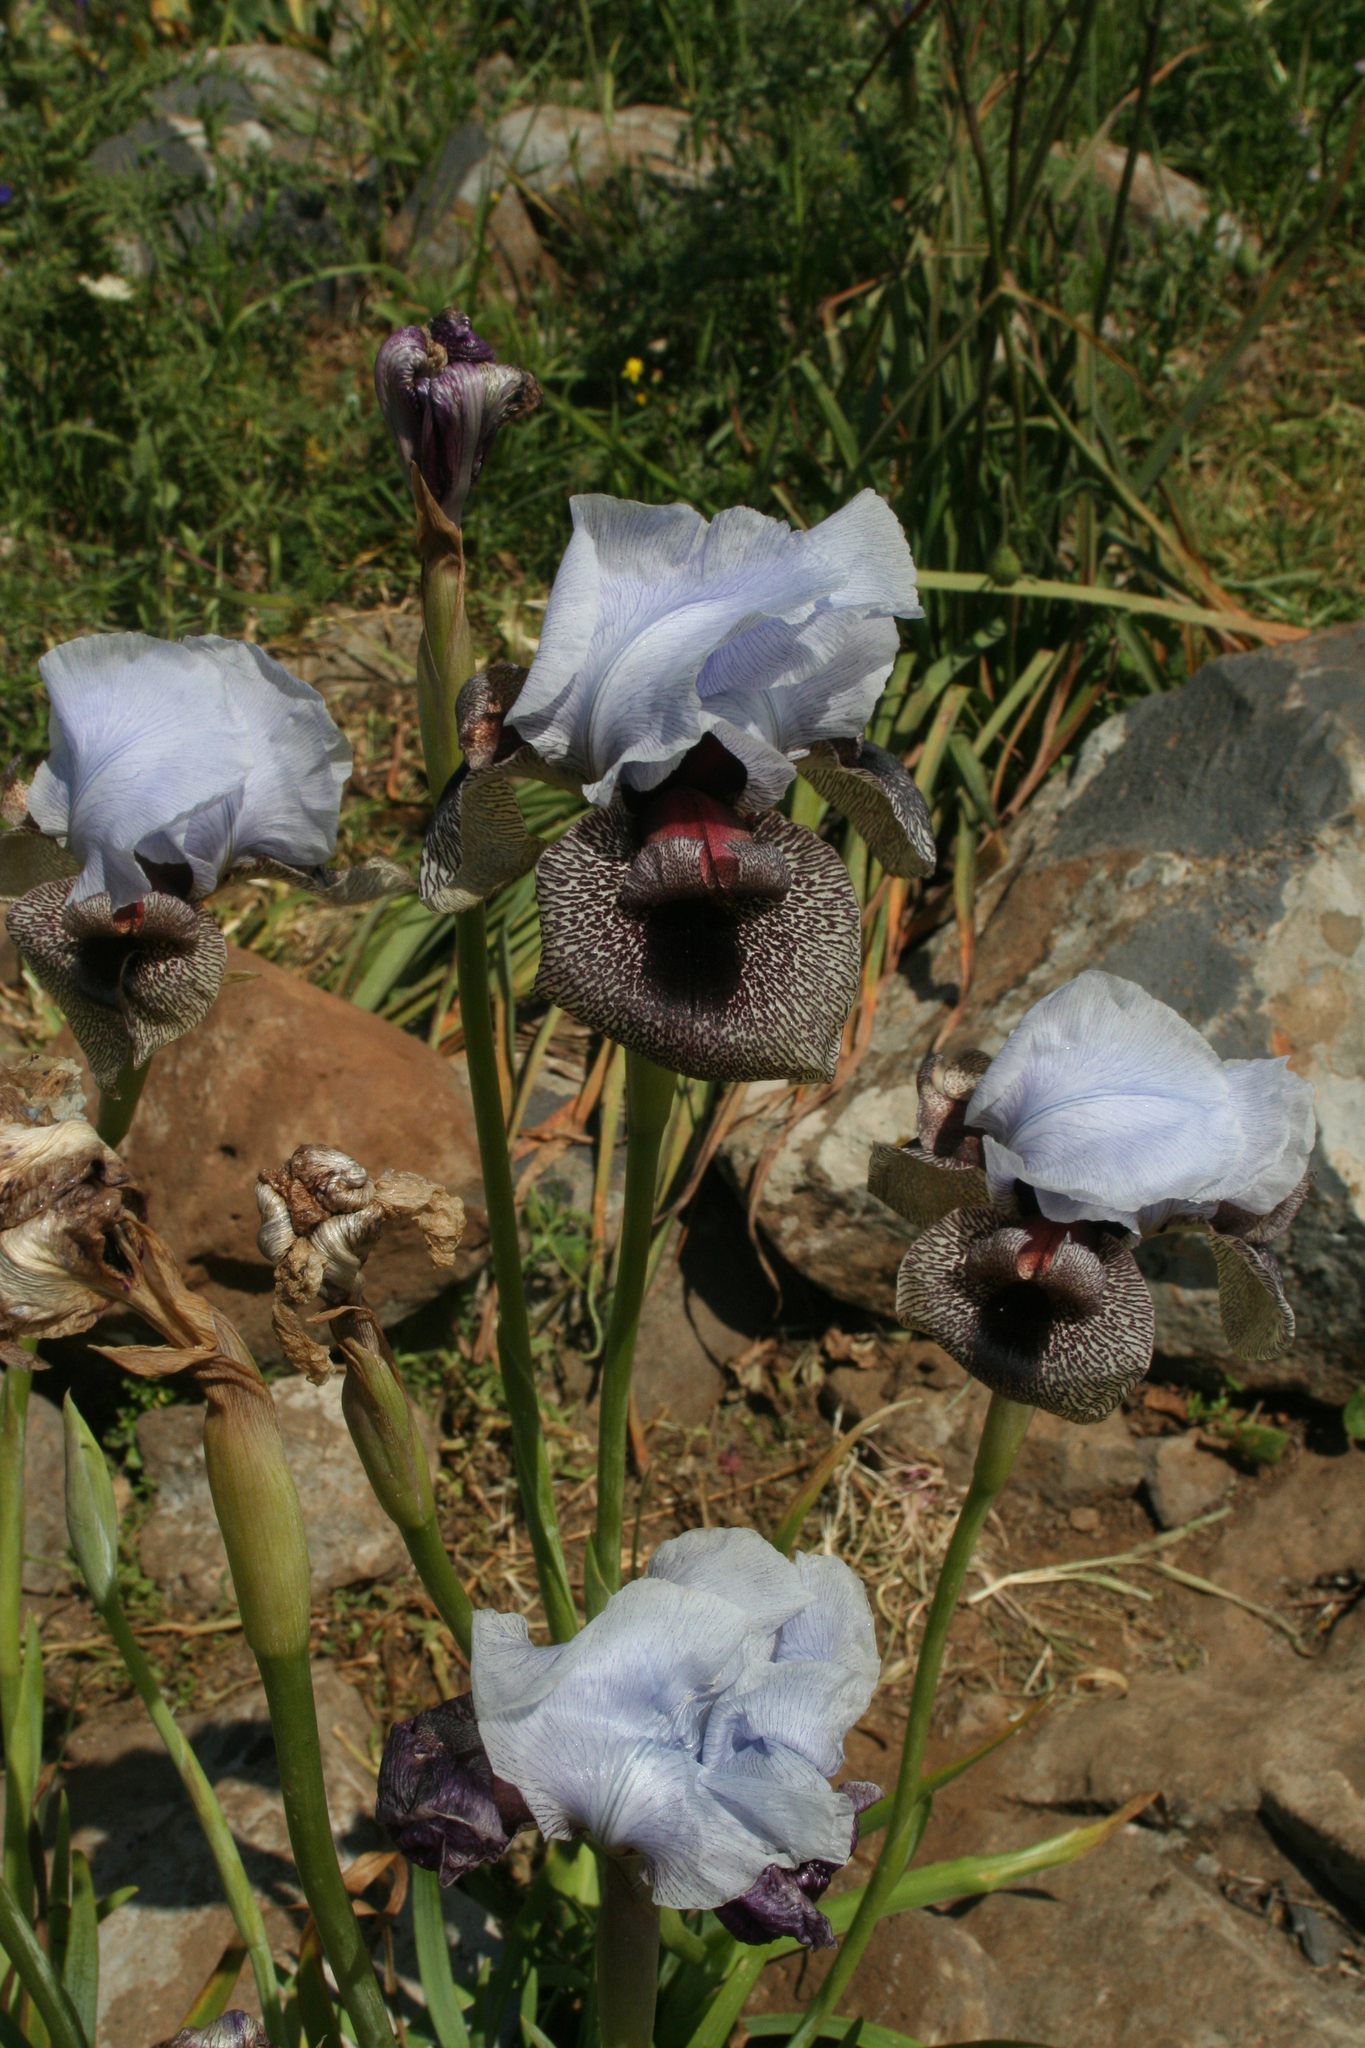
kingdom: Plantae
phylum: Tracheophyta
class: Liliopsida
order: Asparagales
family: Iridaceae
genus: Iris
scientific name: Iris hermona
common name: Golan iris
